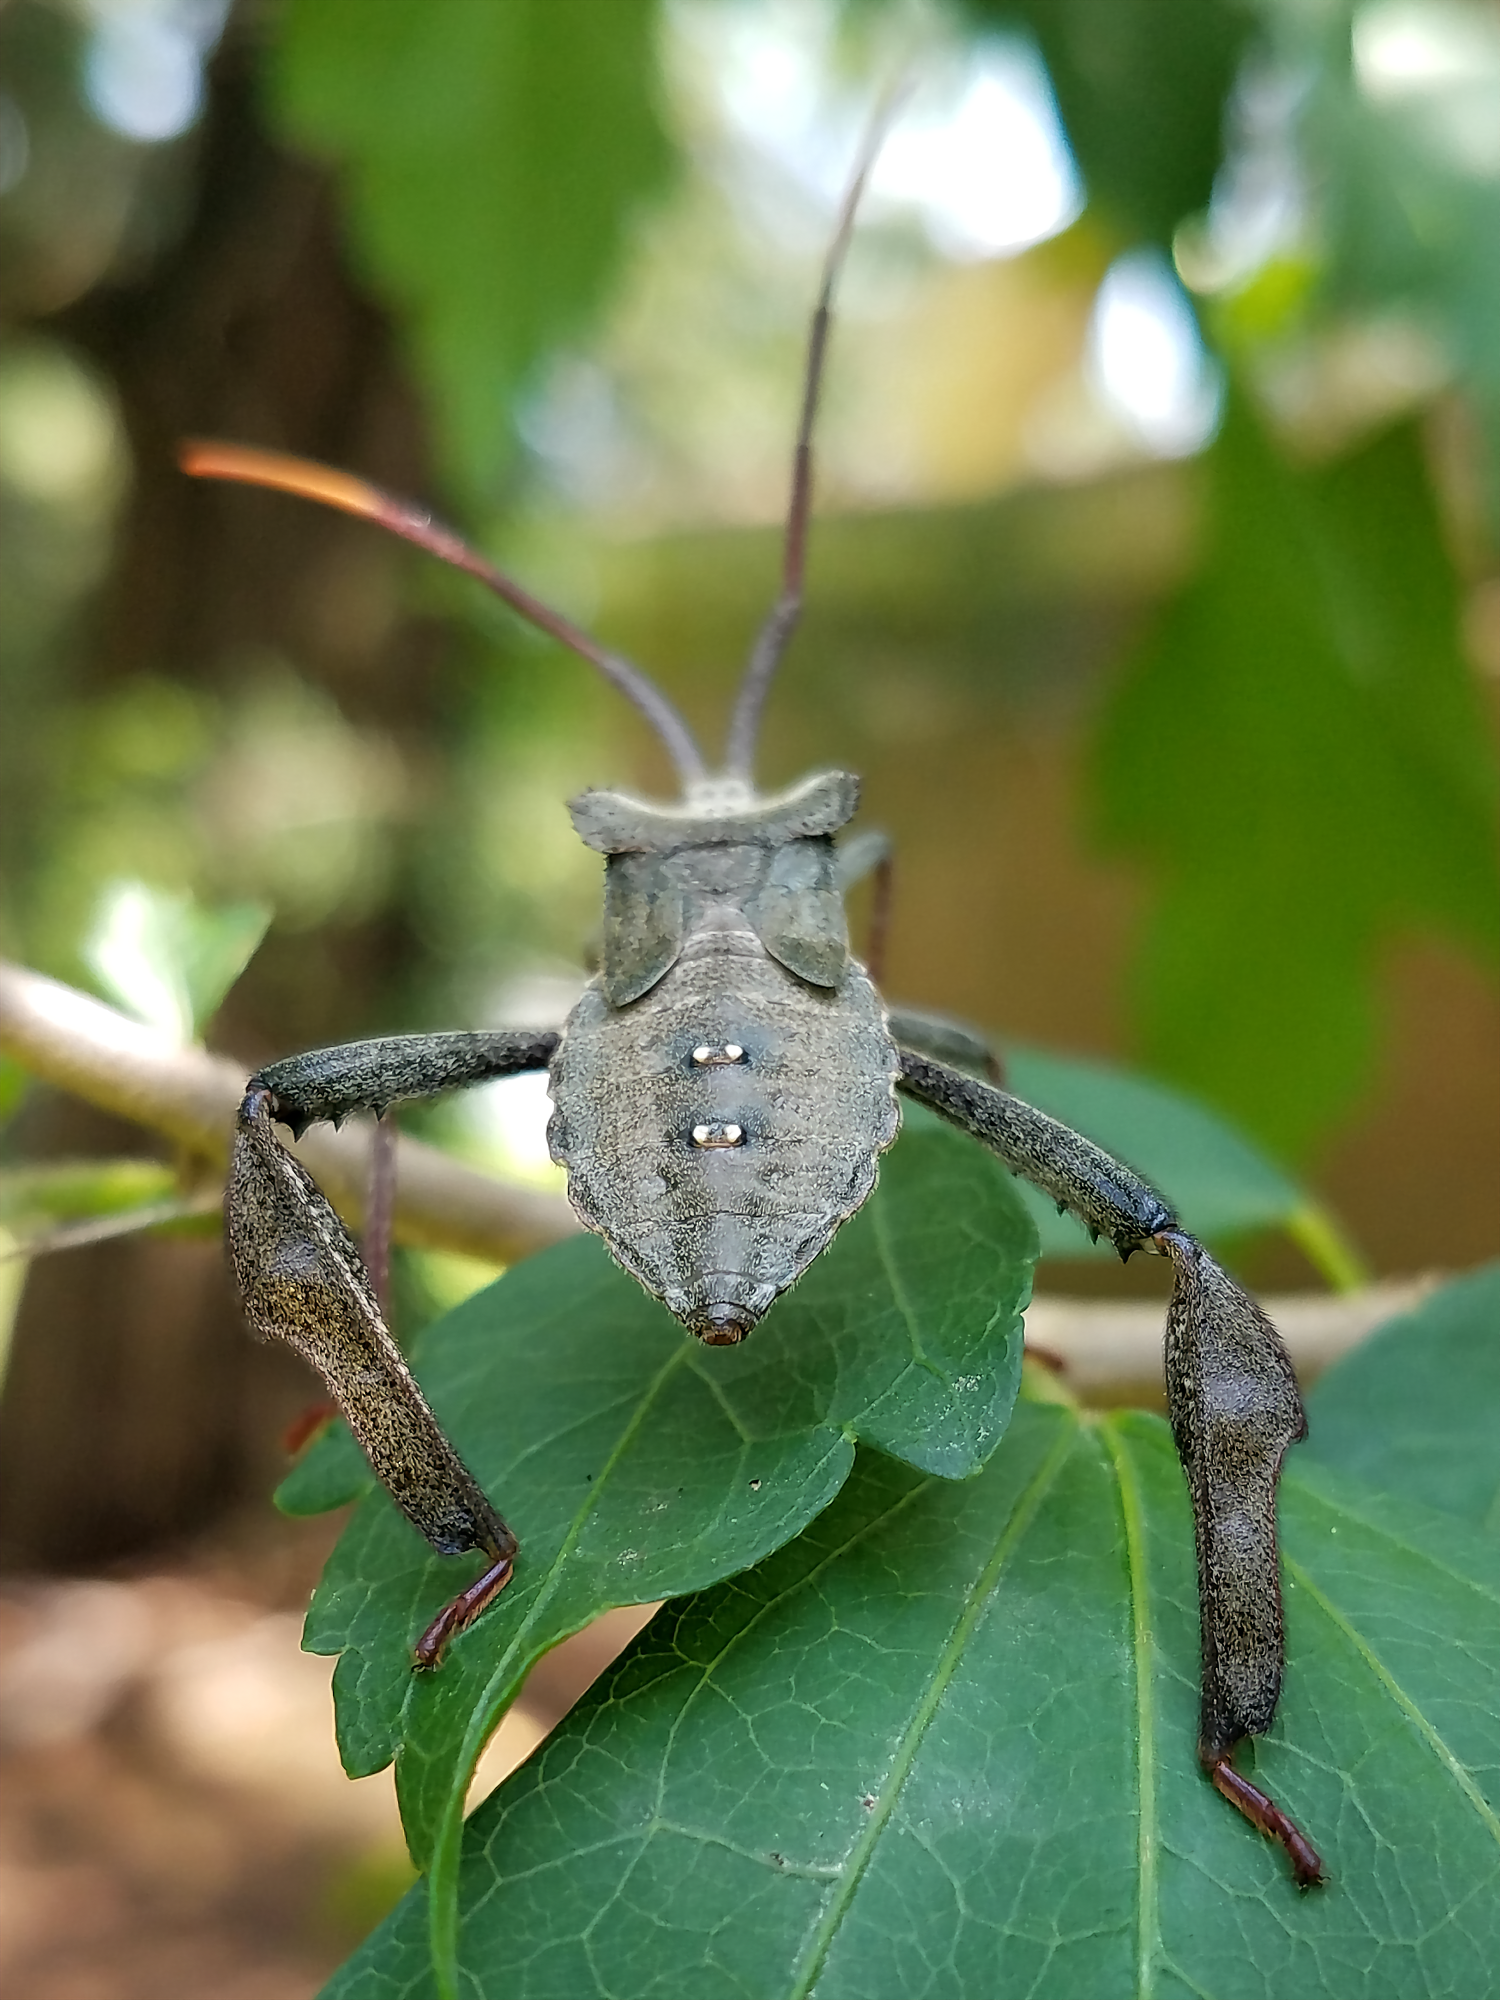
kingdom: Animalia
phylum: Arthropoda
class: Insecta
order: Hemiptera
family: Coreidae
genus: Acanthocephala
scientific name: Acanthocephala declivis
